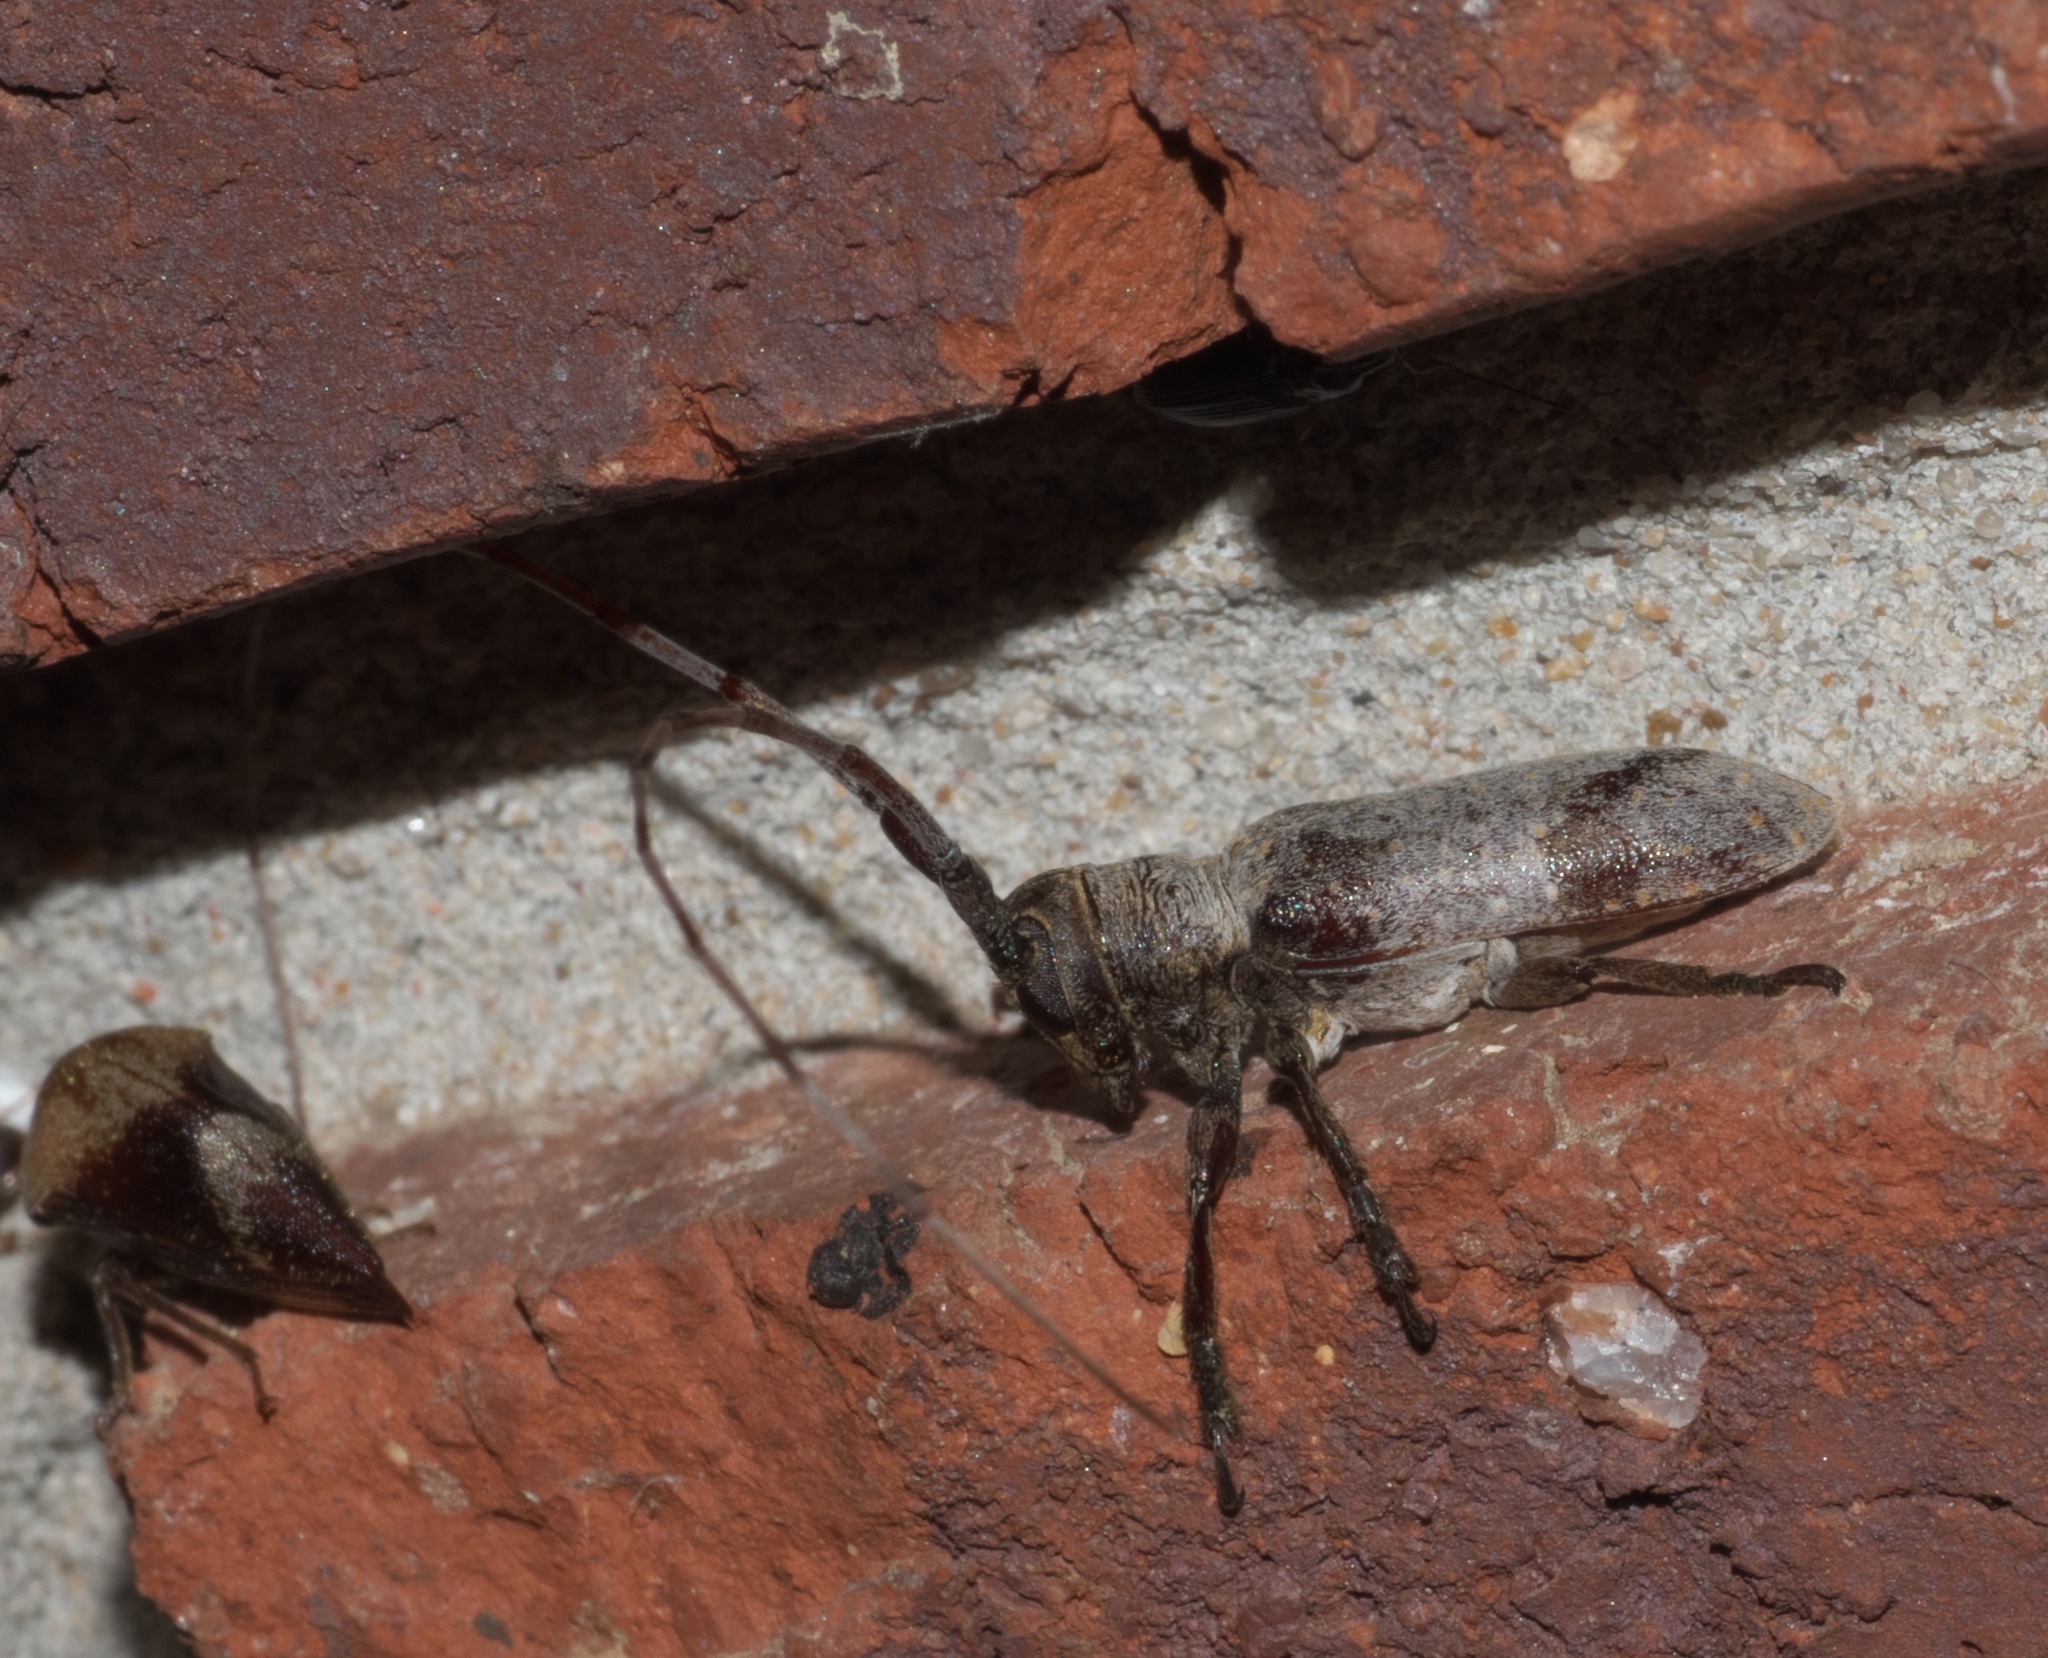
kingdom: Animalia
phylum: Arthropoda
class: Insecta
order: Coleoptera
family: Cerambycidae
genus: Oncideres
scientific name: Oncideres cingulata
